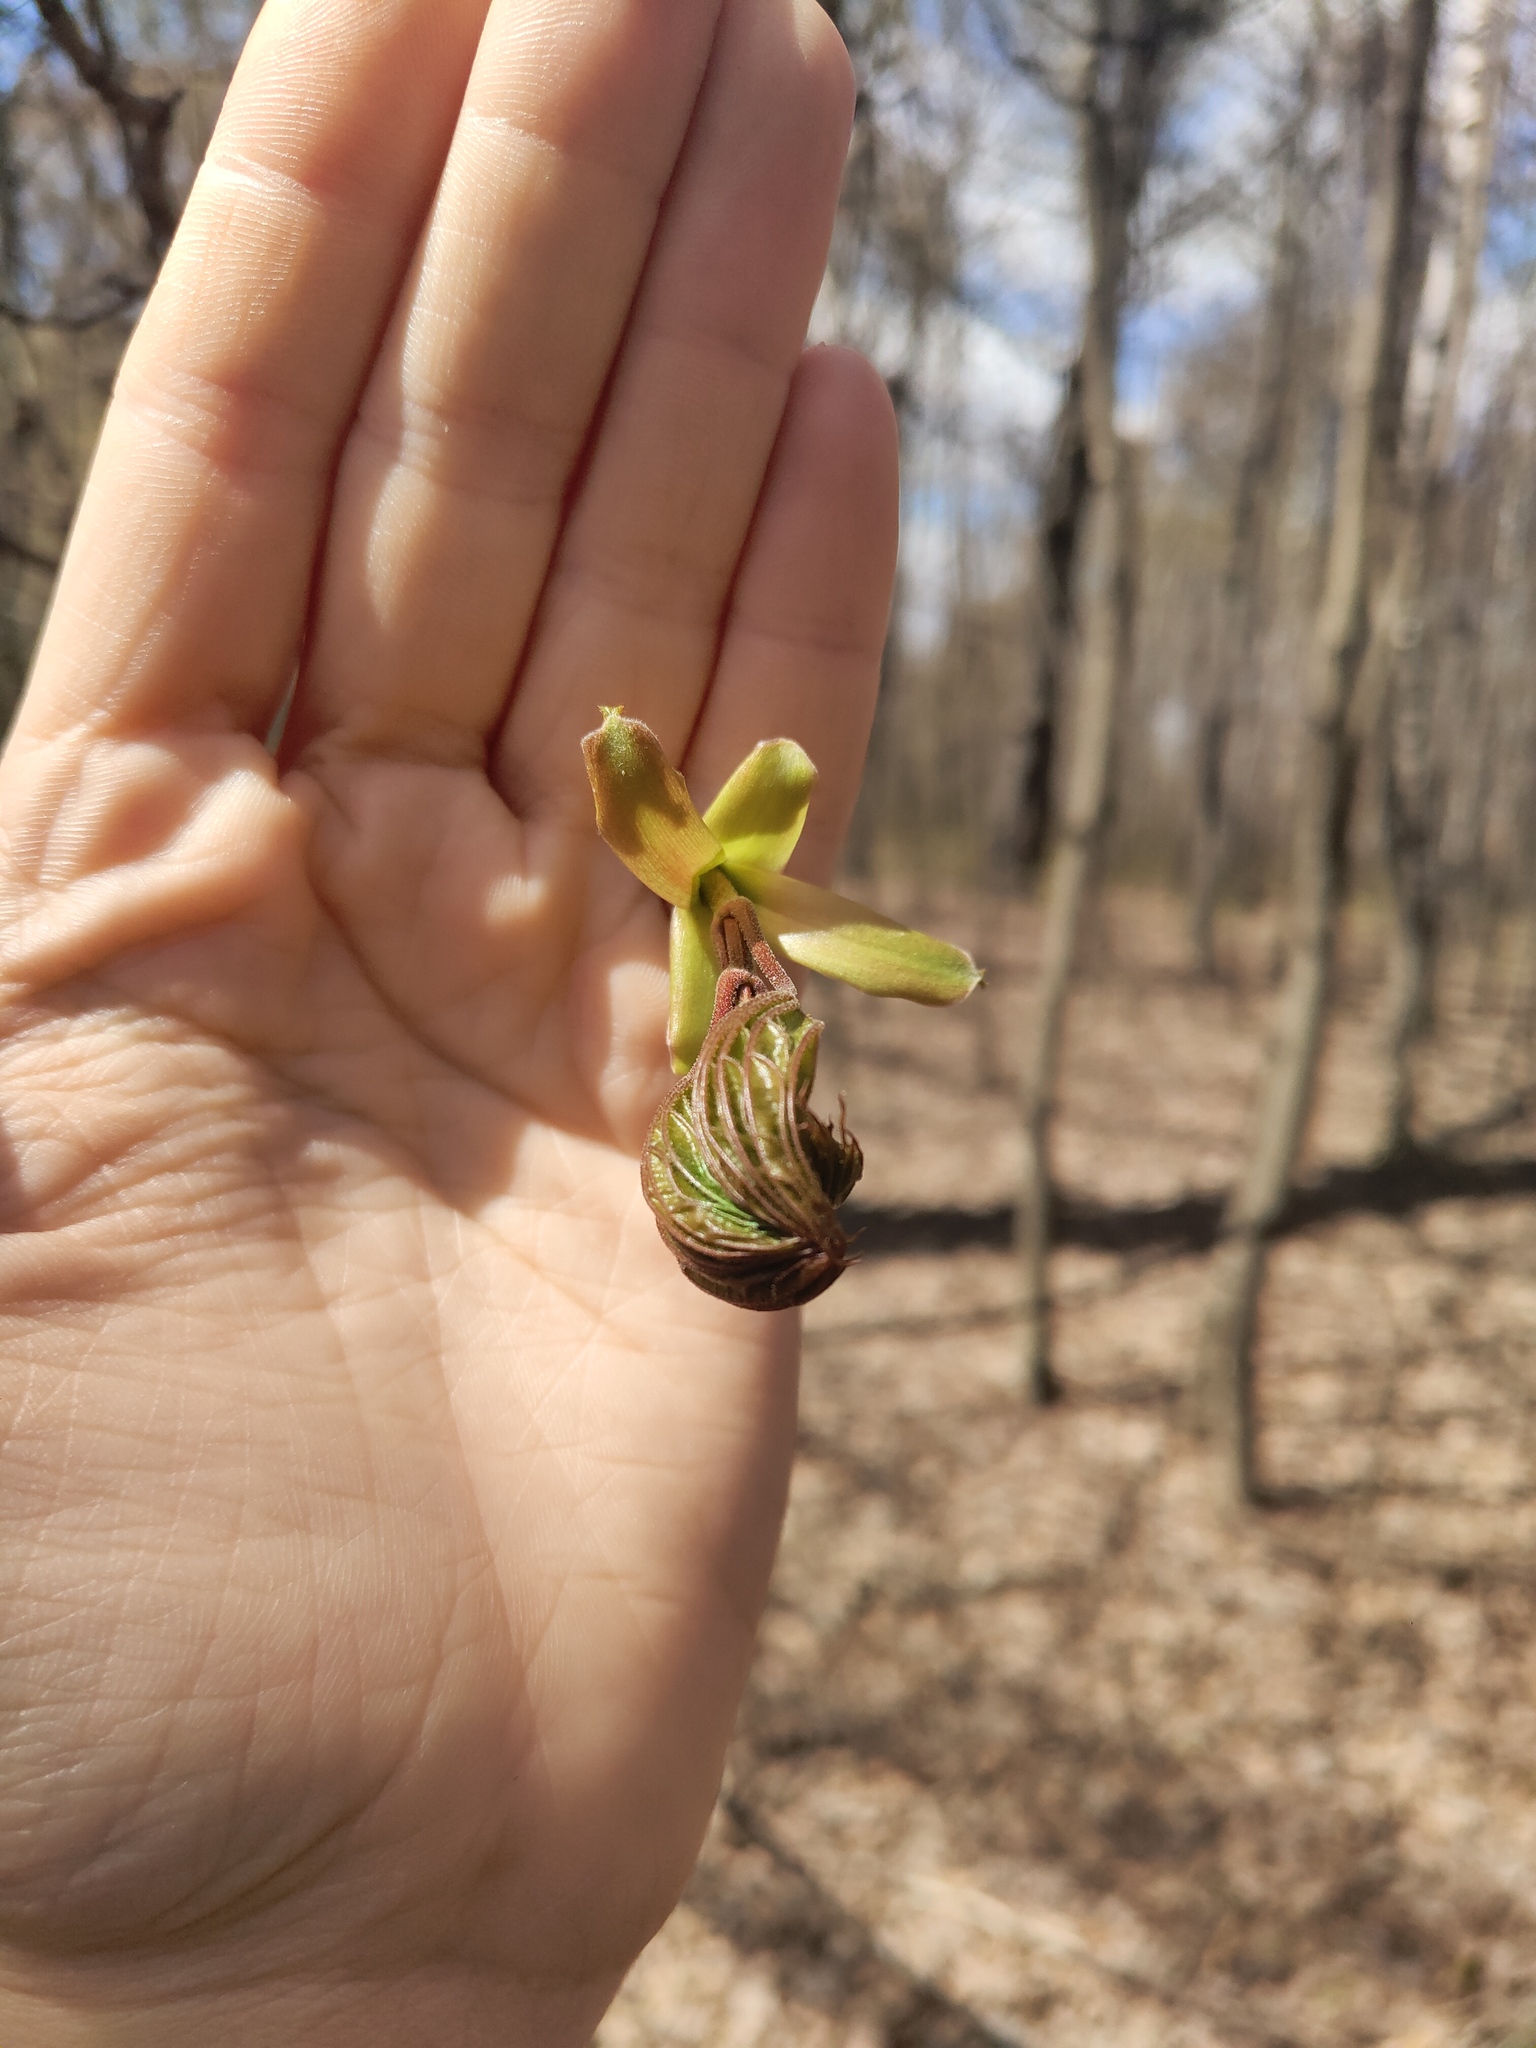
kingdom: Plantae
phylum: Tracheophyta
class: Magnoliopsida
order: Sapindales
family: Sapindaceae
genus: Acer
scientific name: Acer platanoides
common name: Norway maple
